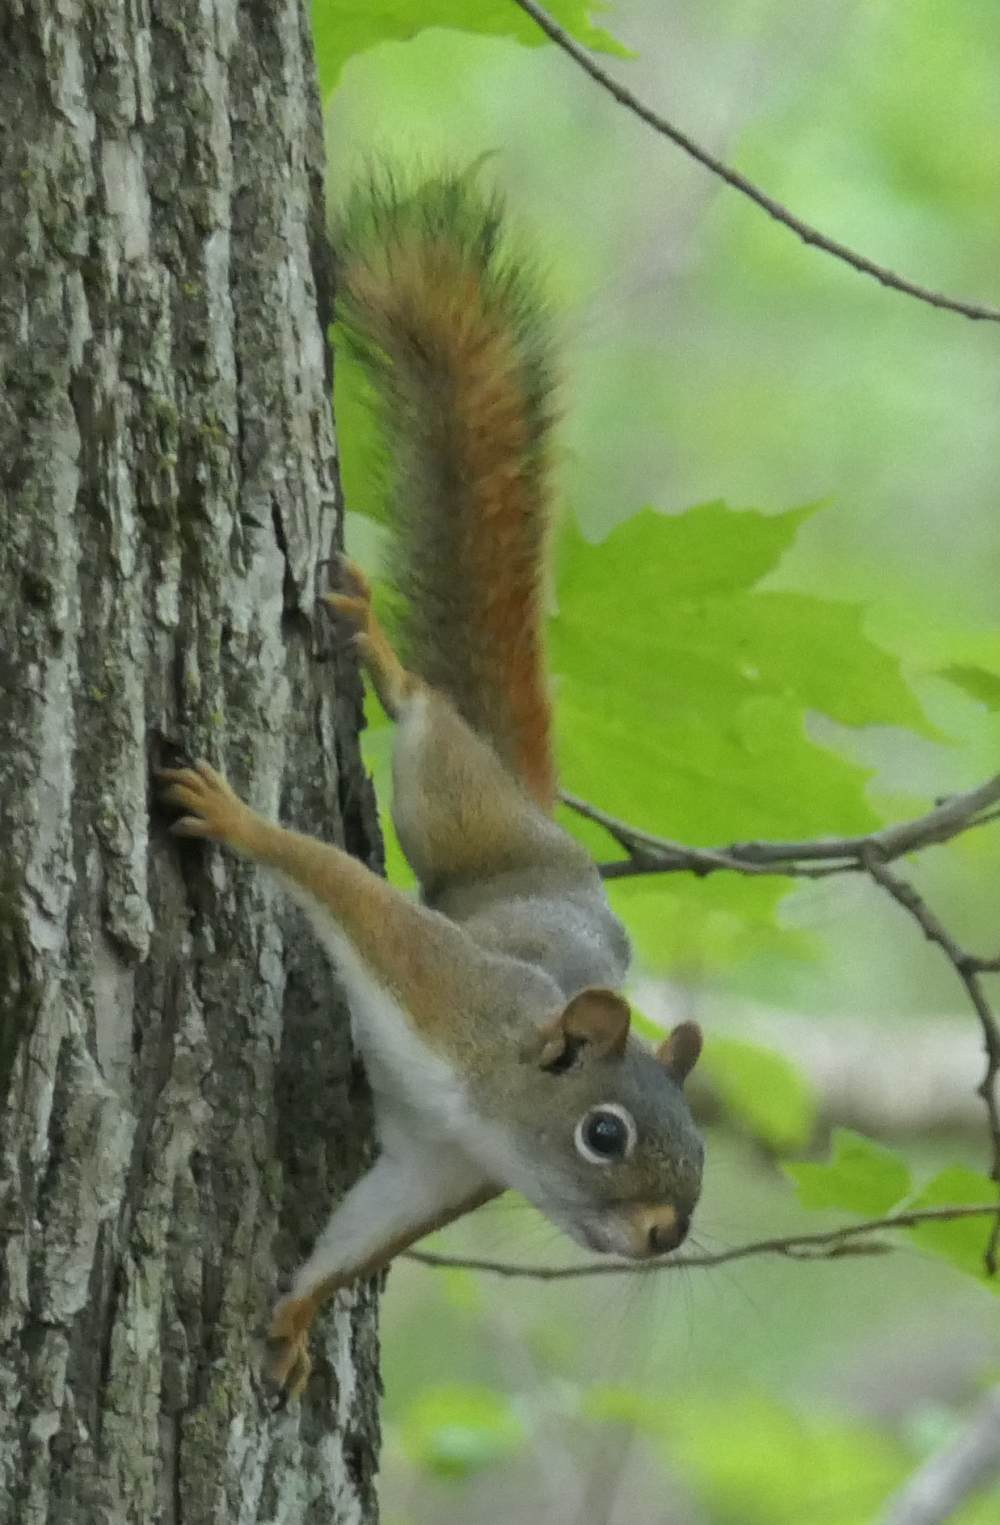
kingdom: Animalia
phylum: Chordata
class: Mammalia
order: Rodentia
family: Sciuridae
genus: Tamiasciurus
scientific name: Tamiasciurus hudsonicus
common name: Red squirrel
